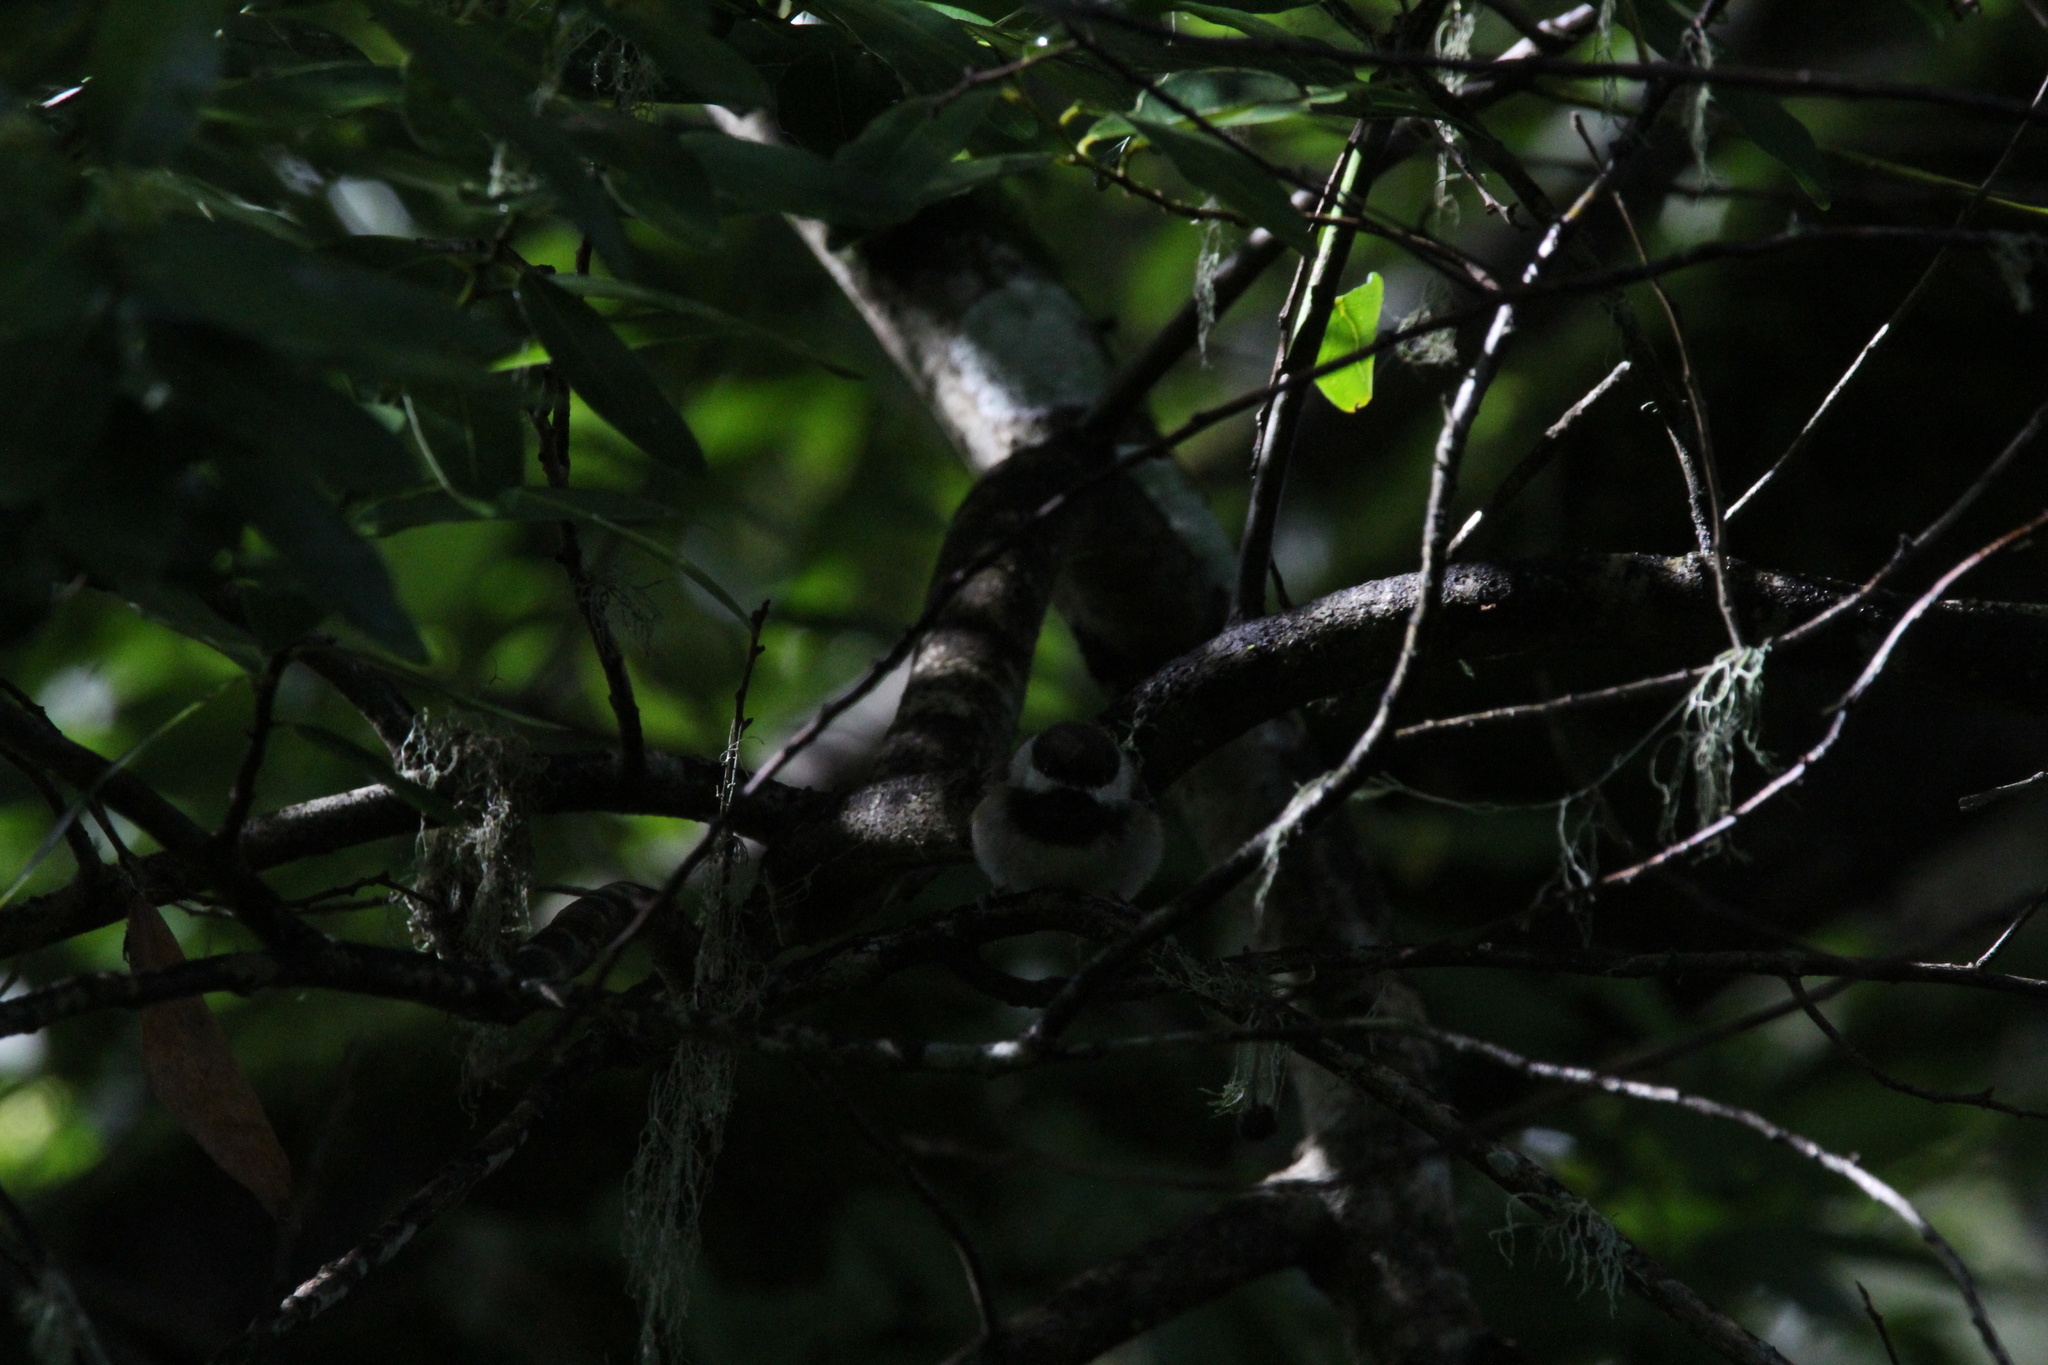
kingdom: Animalia
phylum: Chordata
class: Aves
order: Passeriformes
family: Paridae
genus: Poecile
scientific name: Poecile rufescens
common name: Chestnut-backed chickadee
